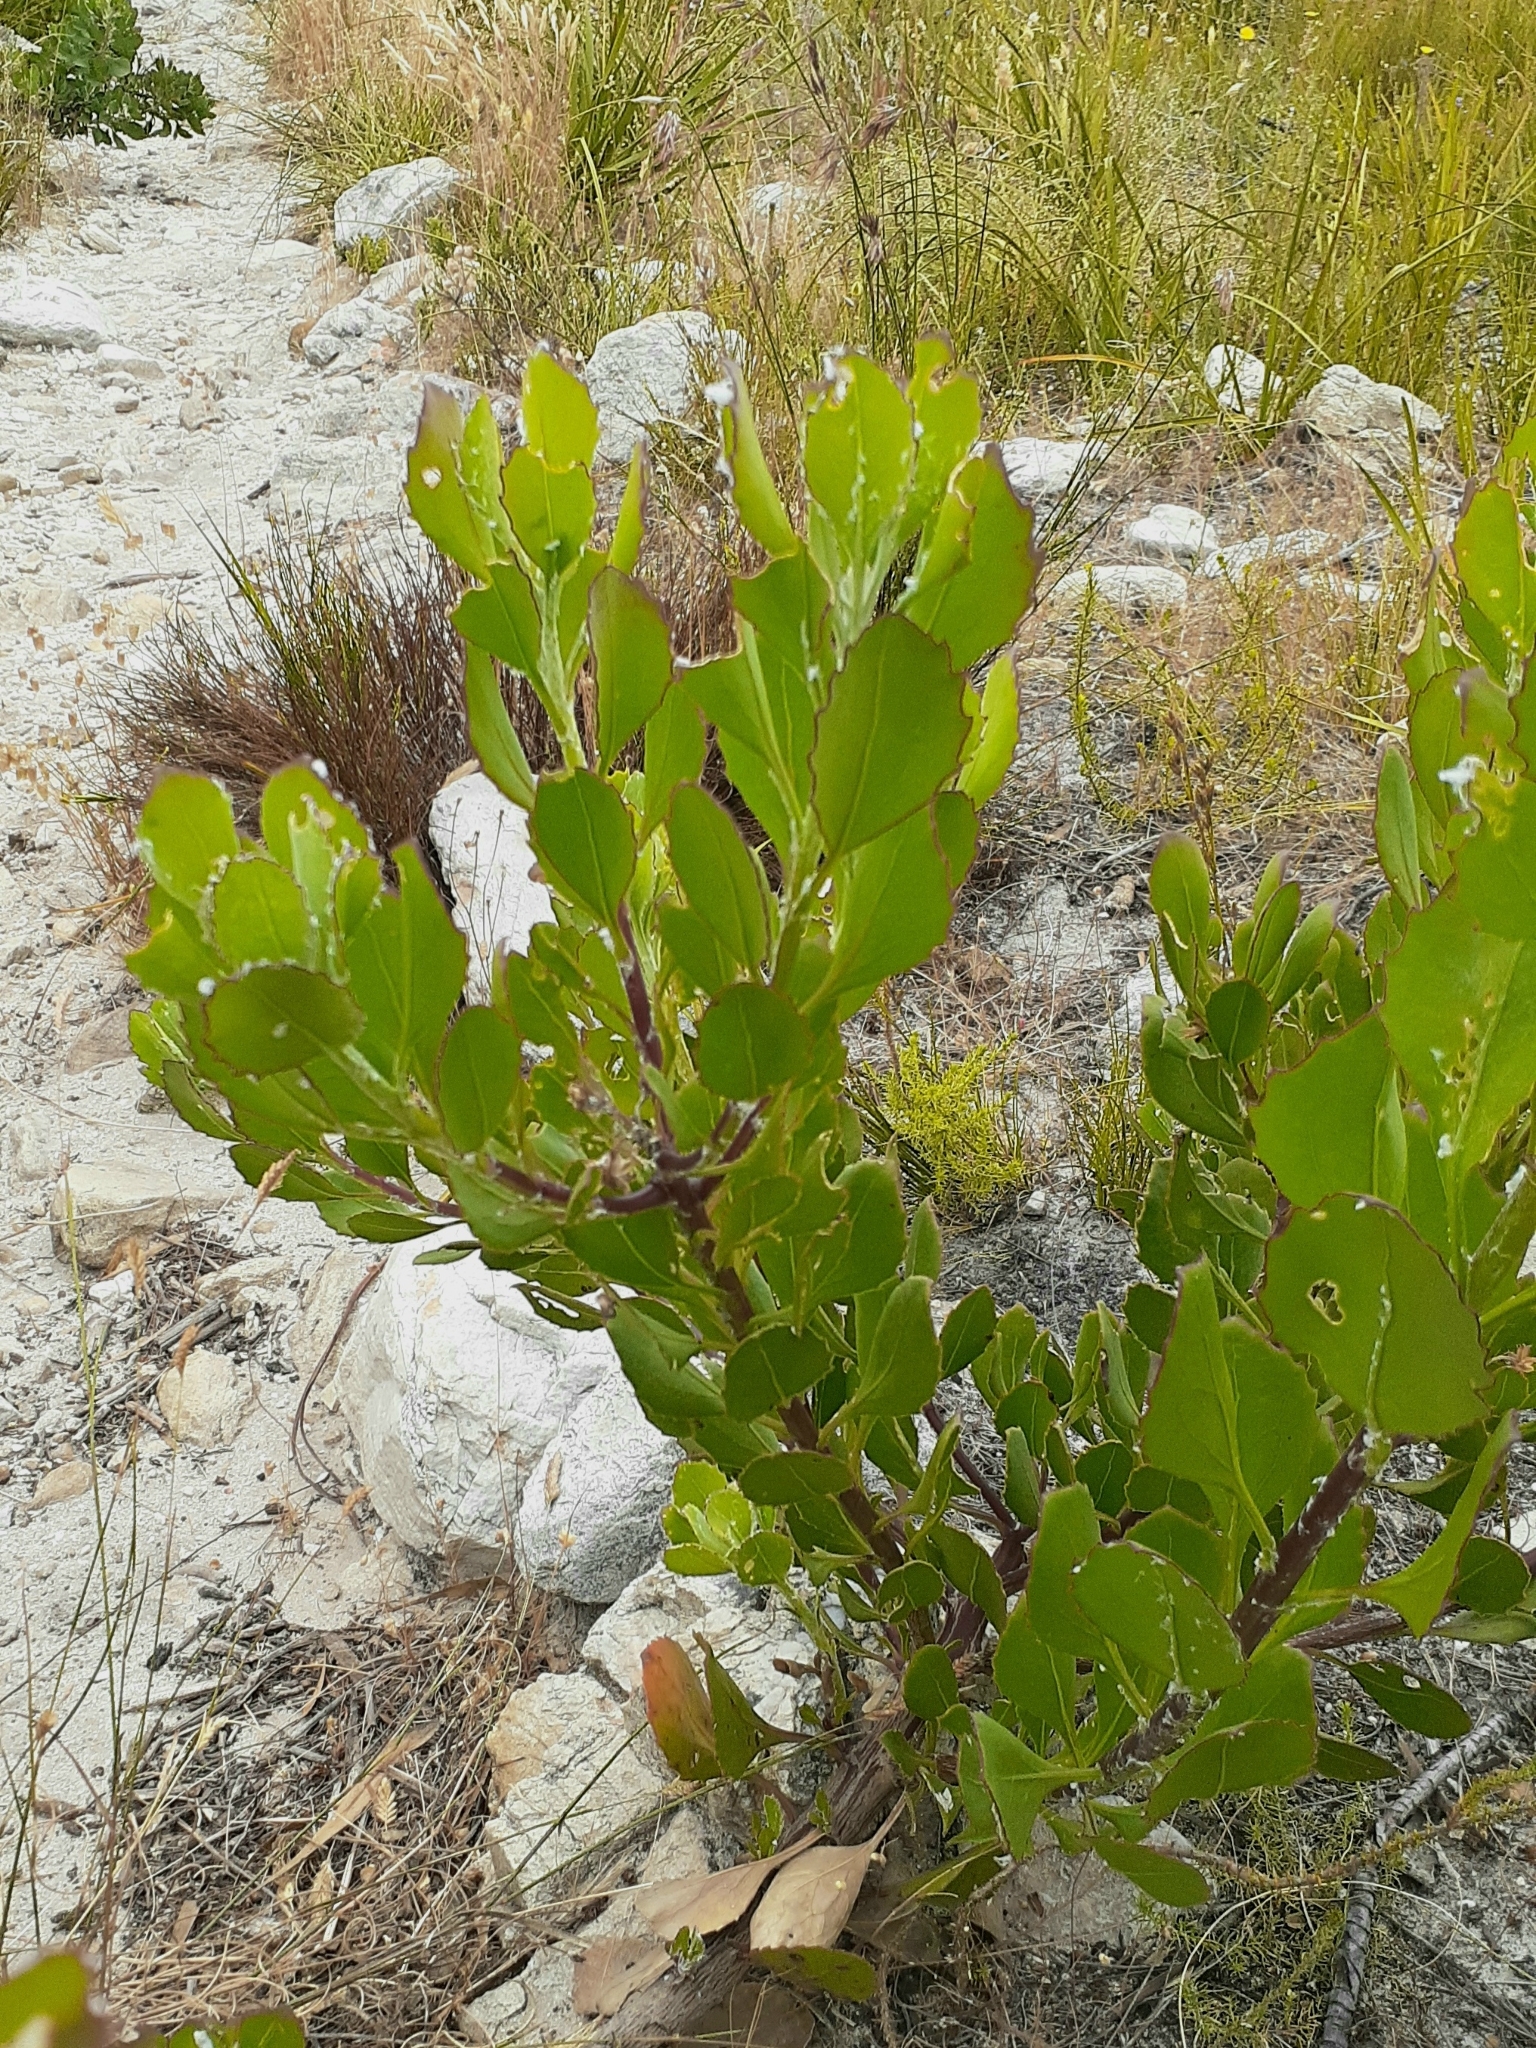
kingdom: Plantae
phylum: Tracheophyta
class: Magnoliopsida
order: Asterales
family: Asteraceae
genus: Osteospermum
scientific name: Osteospermum moniliferum
